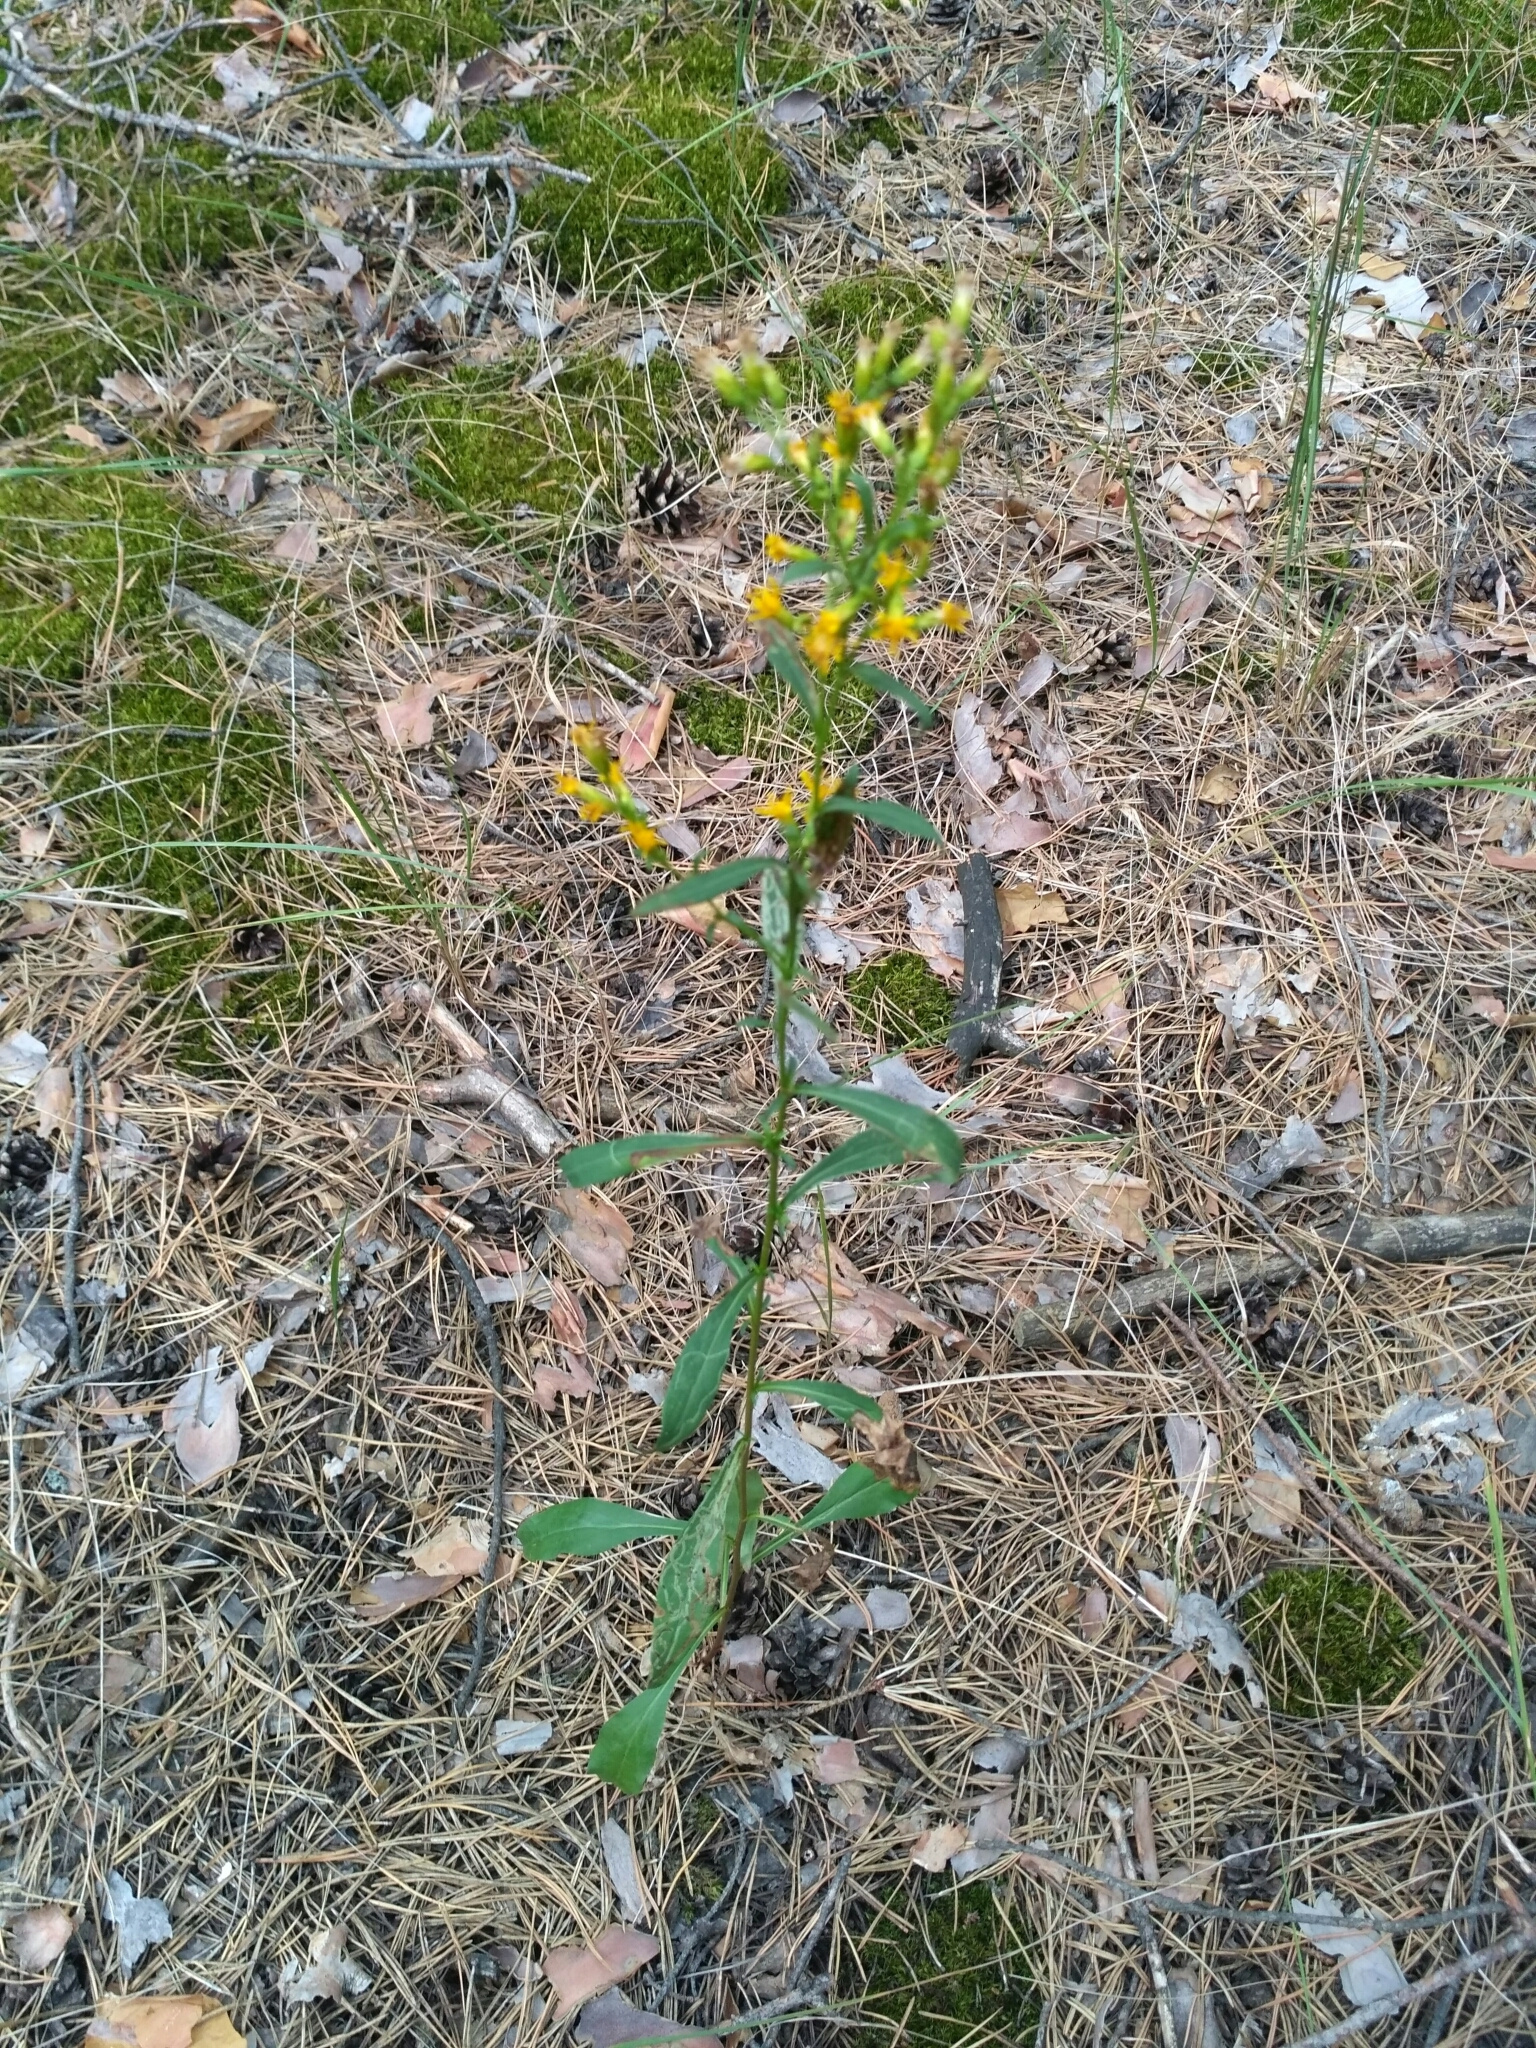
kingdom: Plantae
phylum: Tracheophyta
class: Magnoliopsida
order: Asterales
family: Asteraceae
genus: Solidago
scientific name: Solidago virgaurea
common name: Goldenrod
